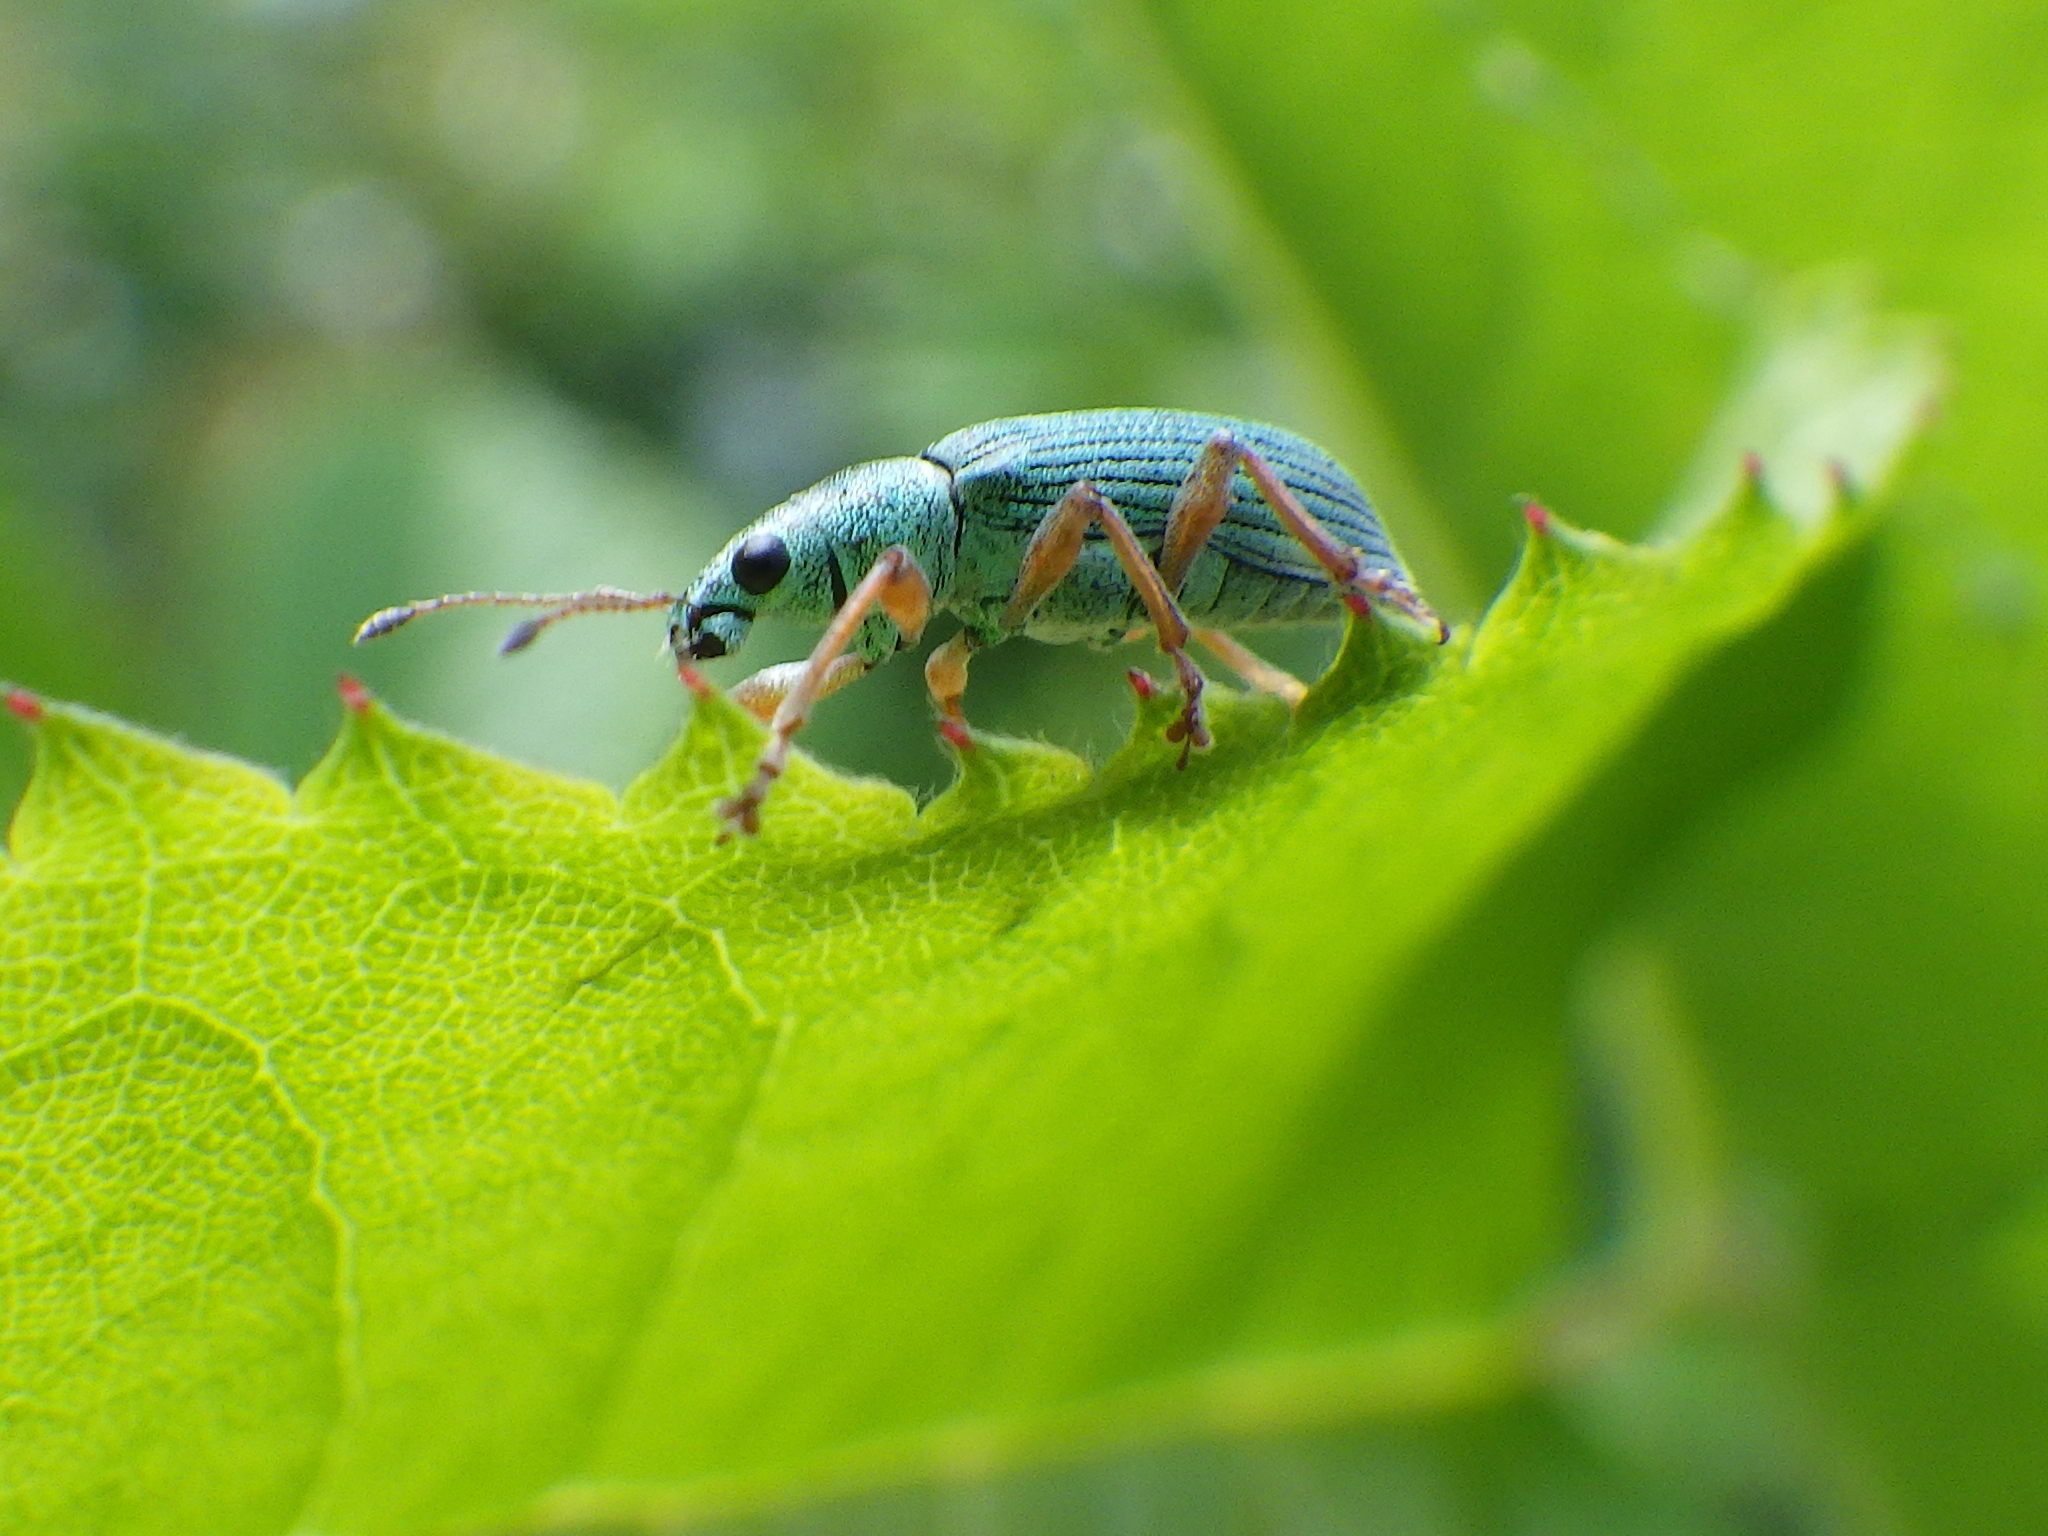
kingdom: Animalia
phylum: Arthropoda
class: Insecta
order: Coleoptera
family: Curculionidae
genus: Polydrusus
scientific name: Polydrusus formosus
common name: Weevil
